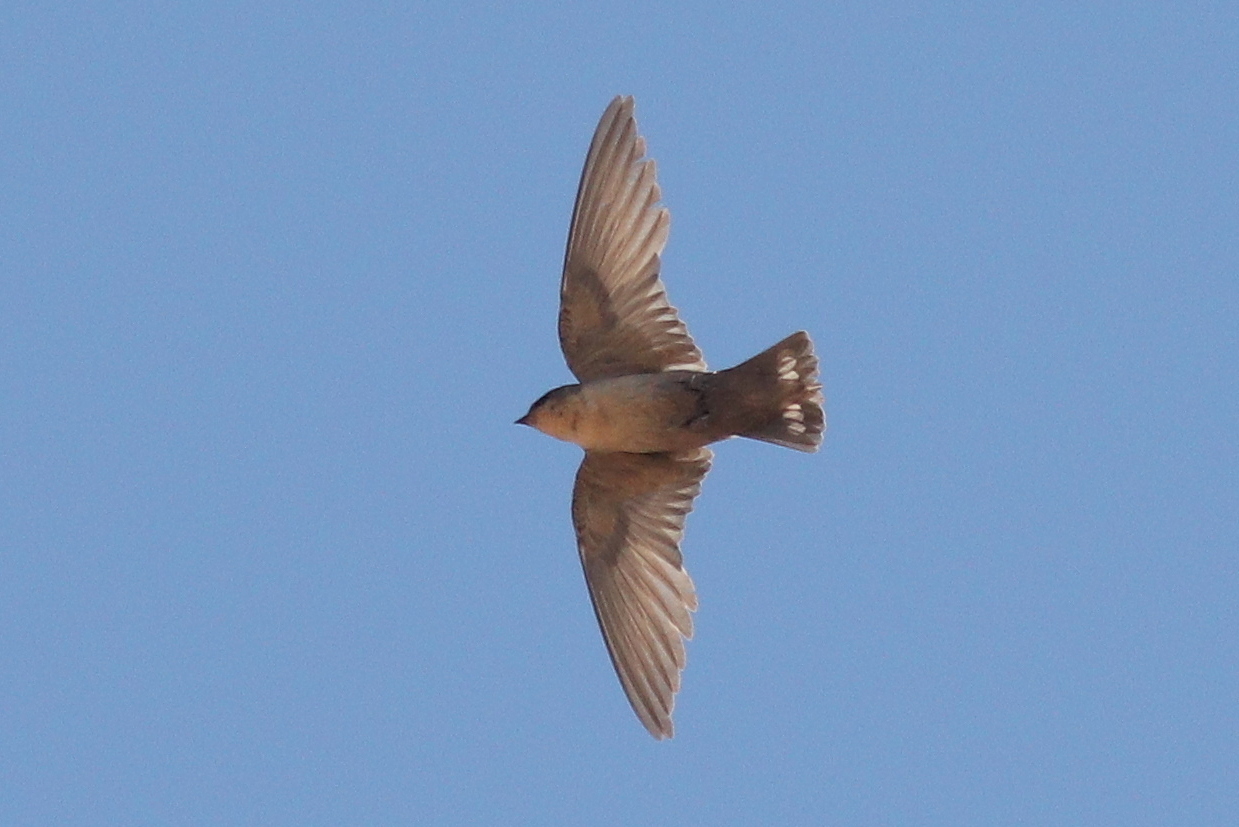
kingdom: Animalia
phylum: Chordata
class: Aves
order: Passeriformes
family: Hirundinidae
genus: Ptyonoprogne
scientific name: Ptyonoprogne fuligula
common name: Rock martin
